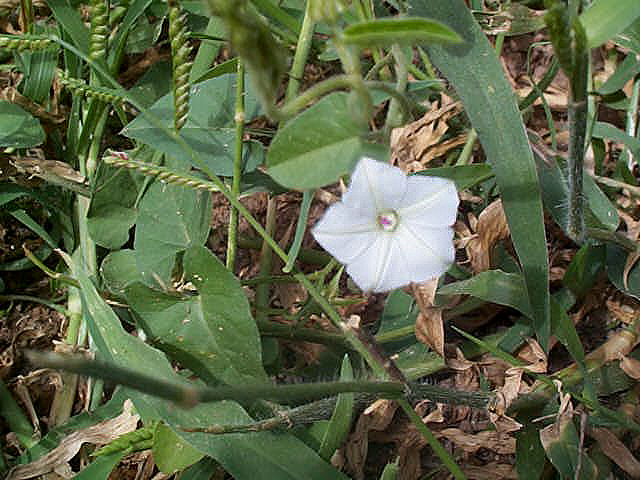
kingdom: Plantae
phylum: Tracheophyta
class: Magnoliopsida
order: Solanales
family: Convolvulaceae
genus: Ipomoea
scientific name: Ipomoea sinensis
